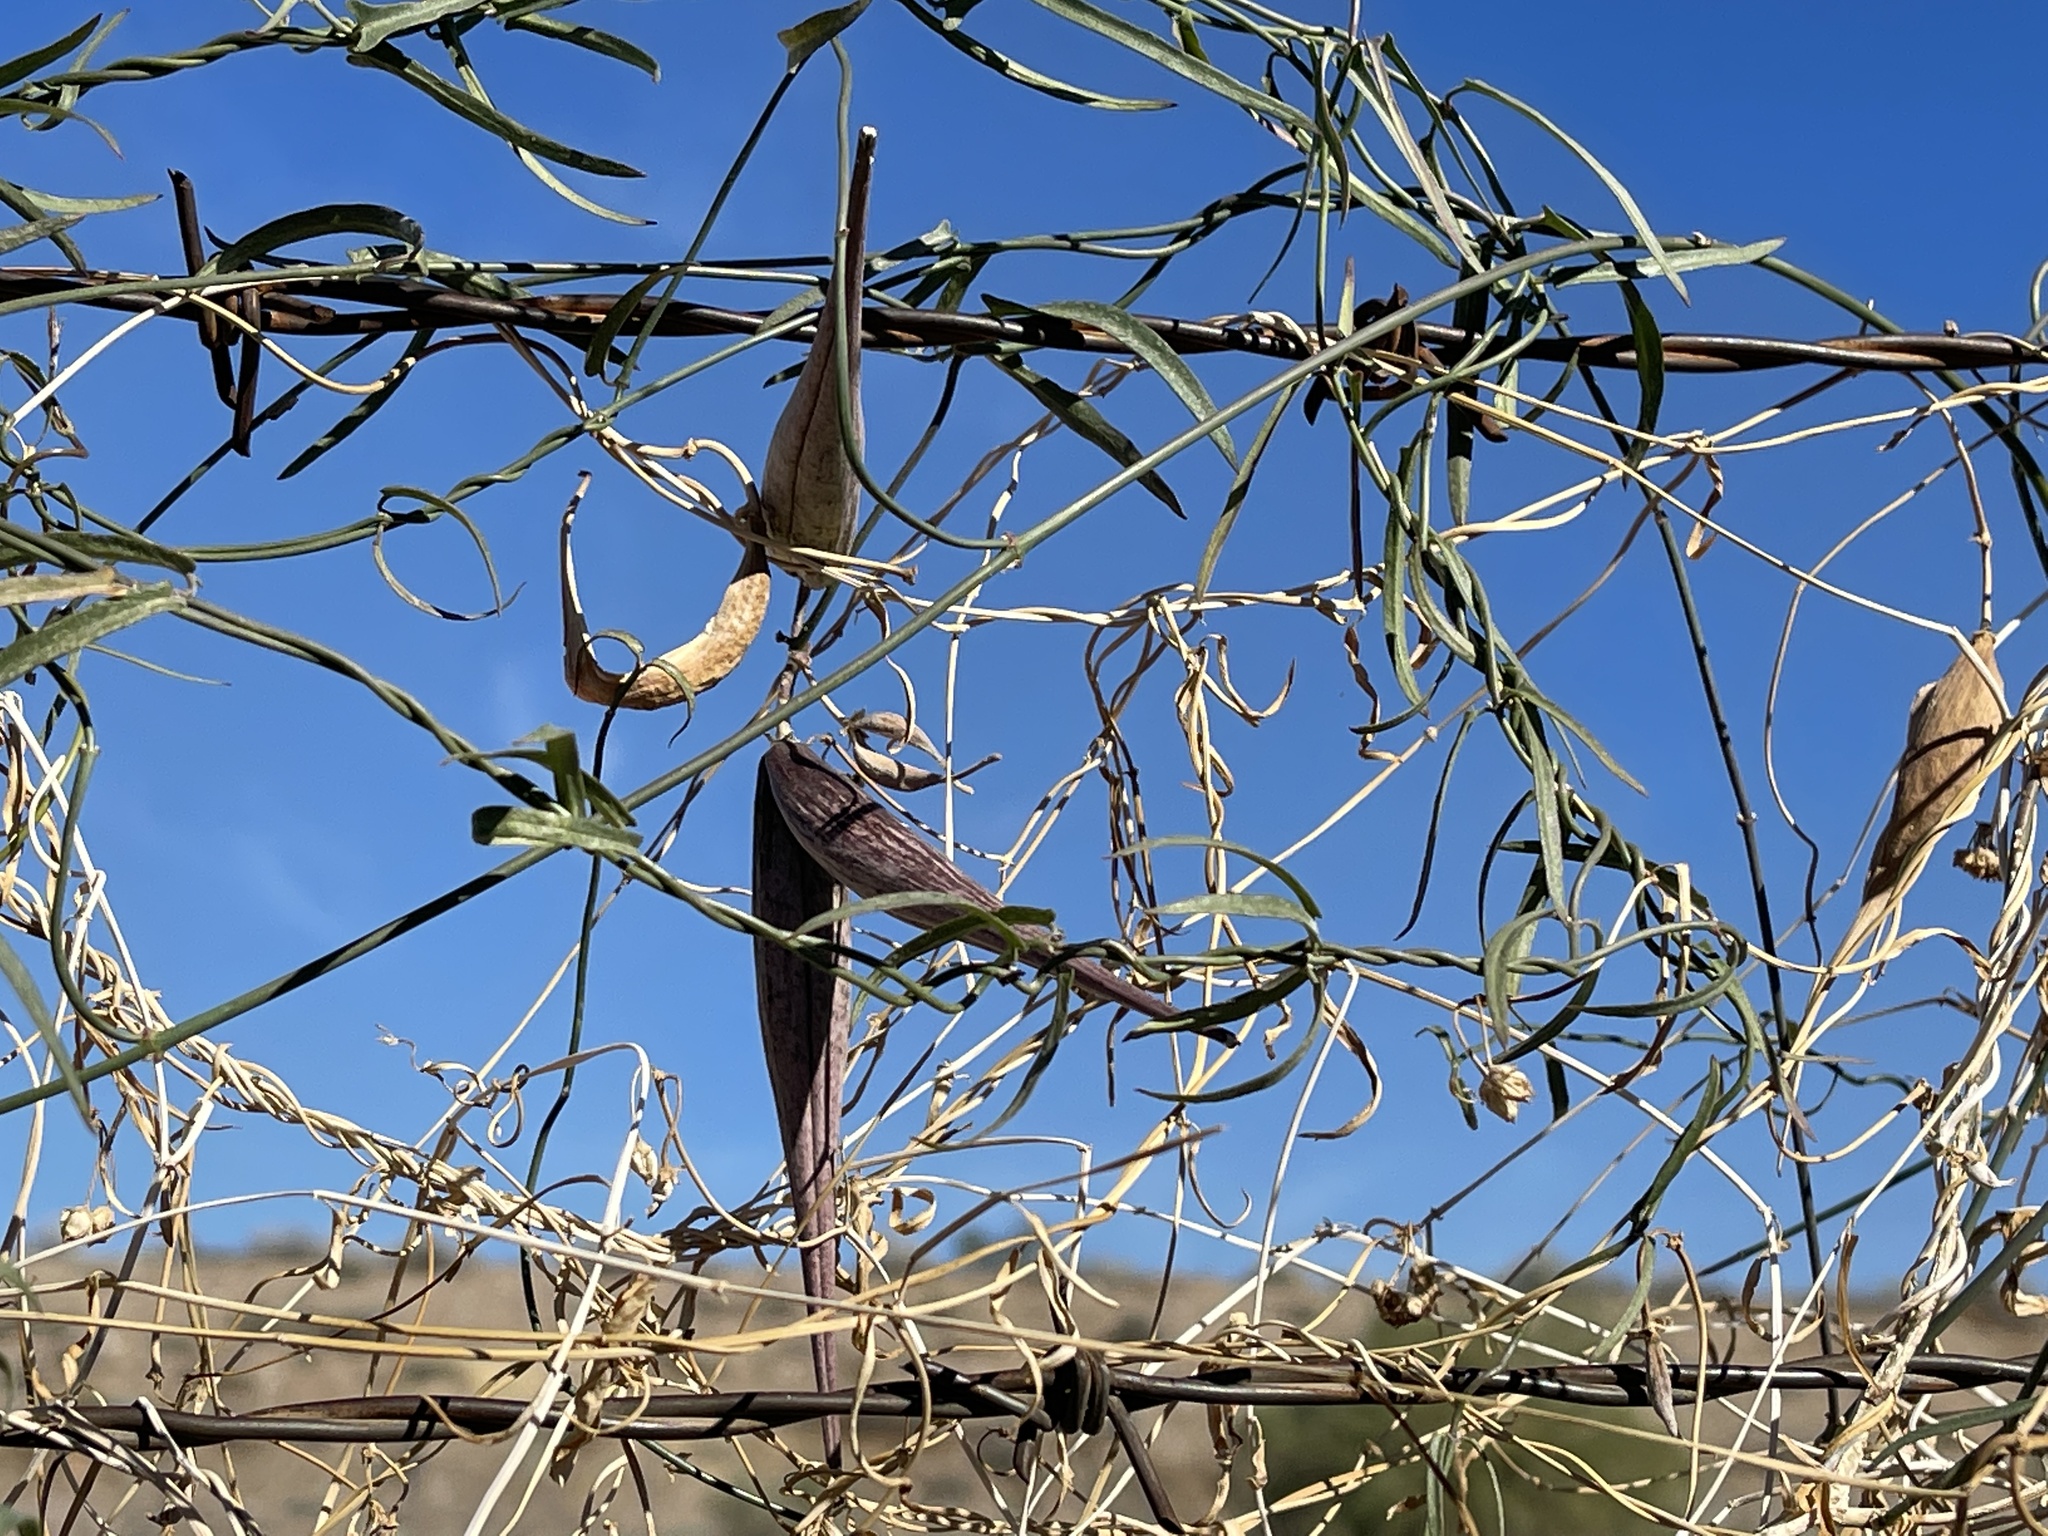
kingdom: Plantae
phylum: Tracheophyta
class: Magnoliopsida
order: Gentianales
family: Apocynaceae
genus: Funastrum
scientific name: Funastrum heterophyllum
